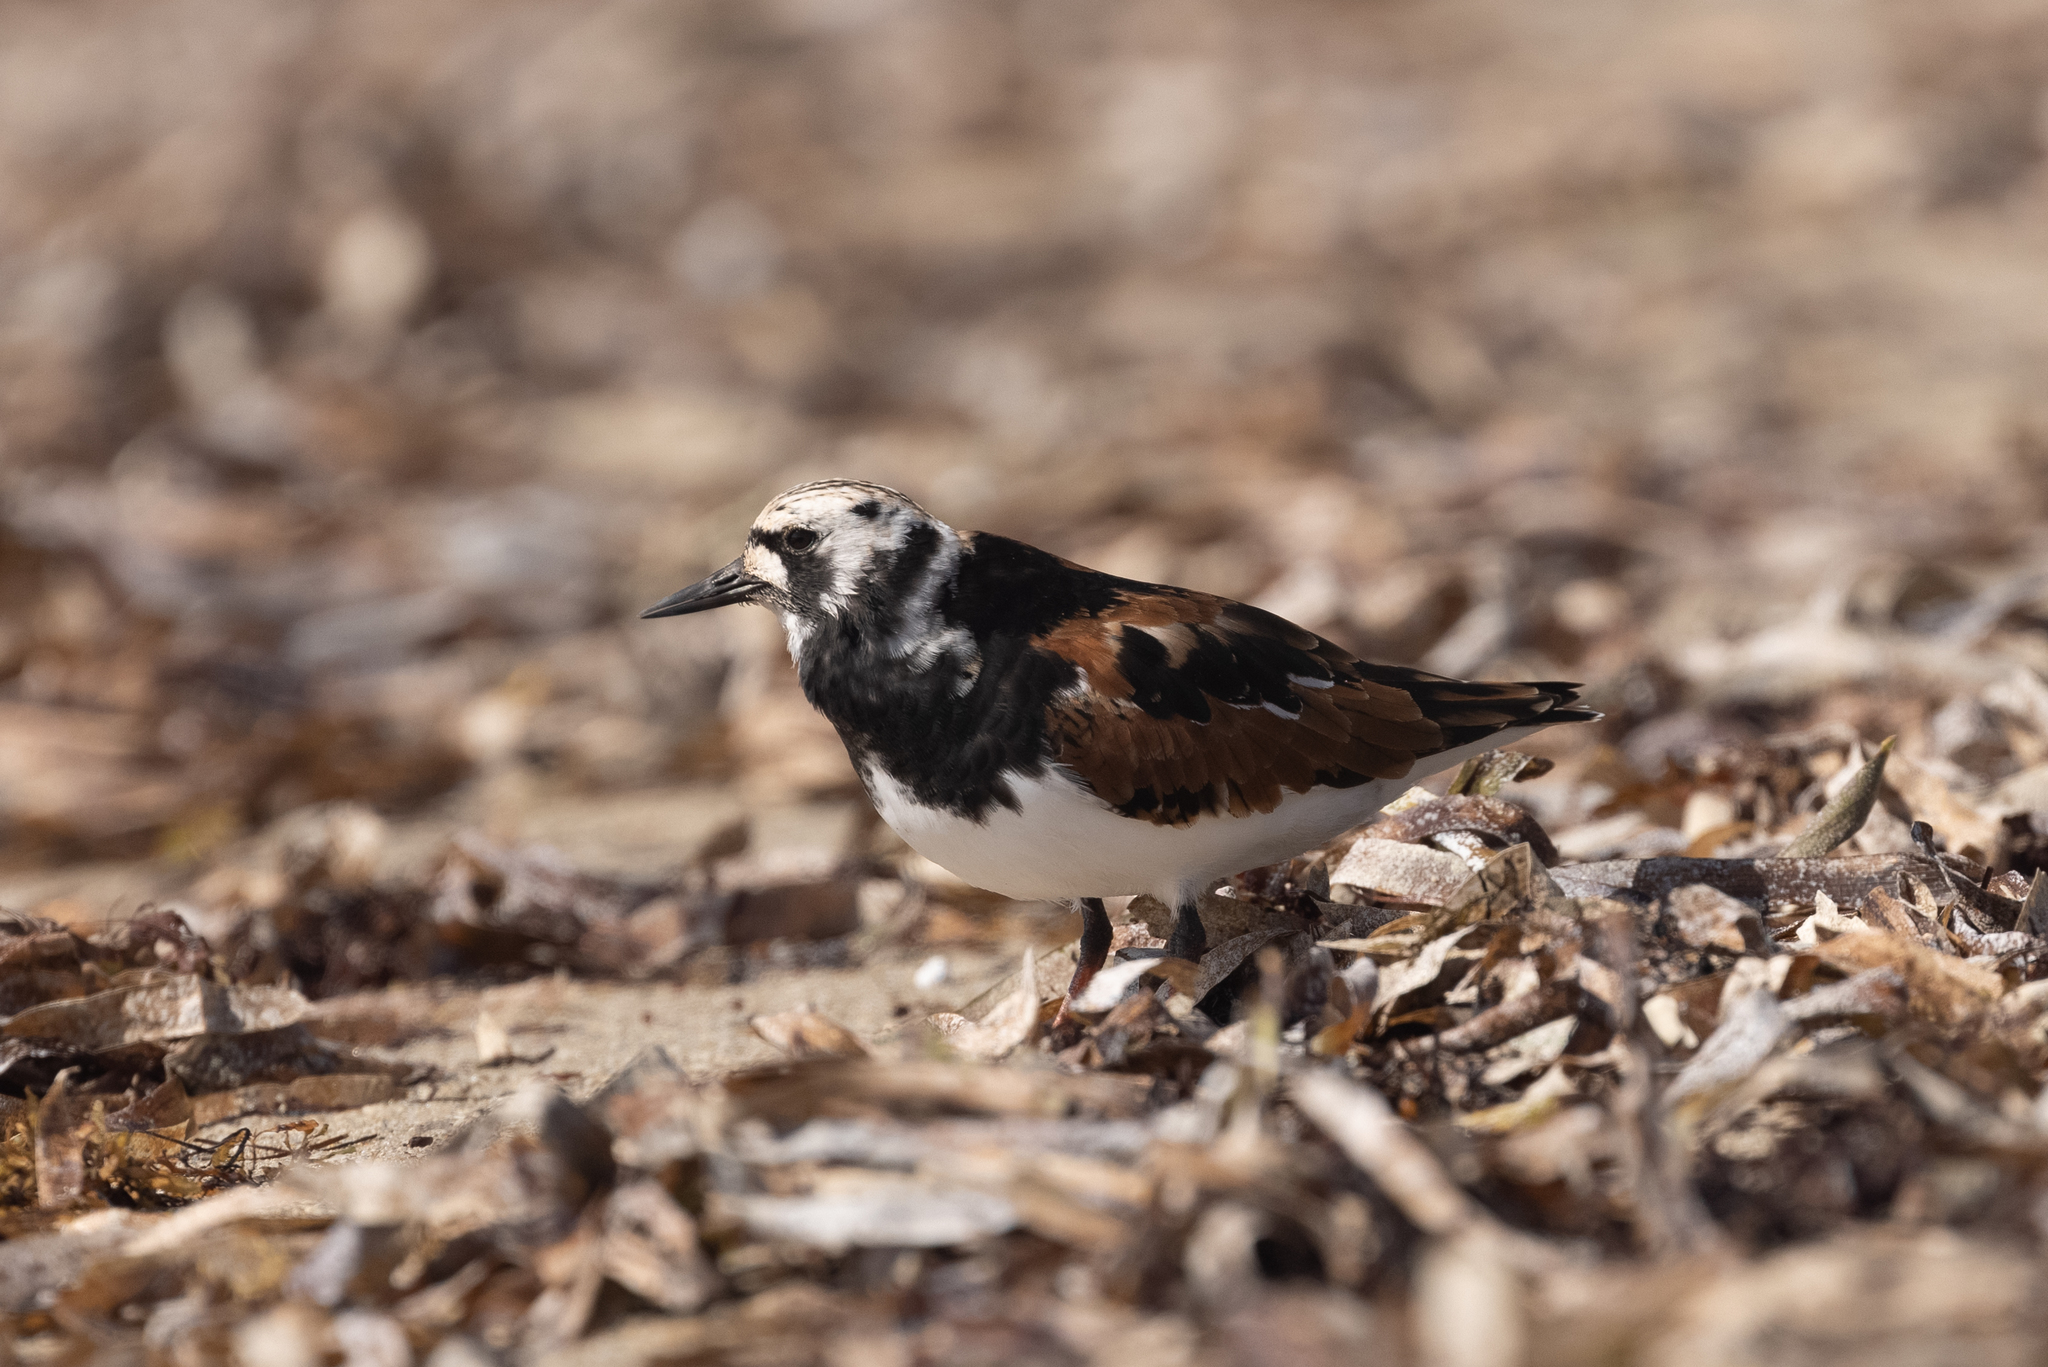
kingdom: Animalia
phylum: Chordata
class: Aves
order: Charadriiformes
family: Scolopacidae
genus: Arenaria
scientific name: Arenaria interpres
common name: Ruddy turnstone
